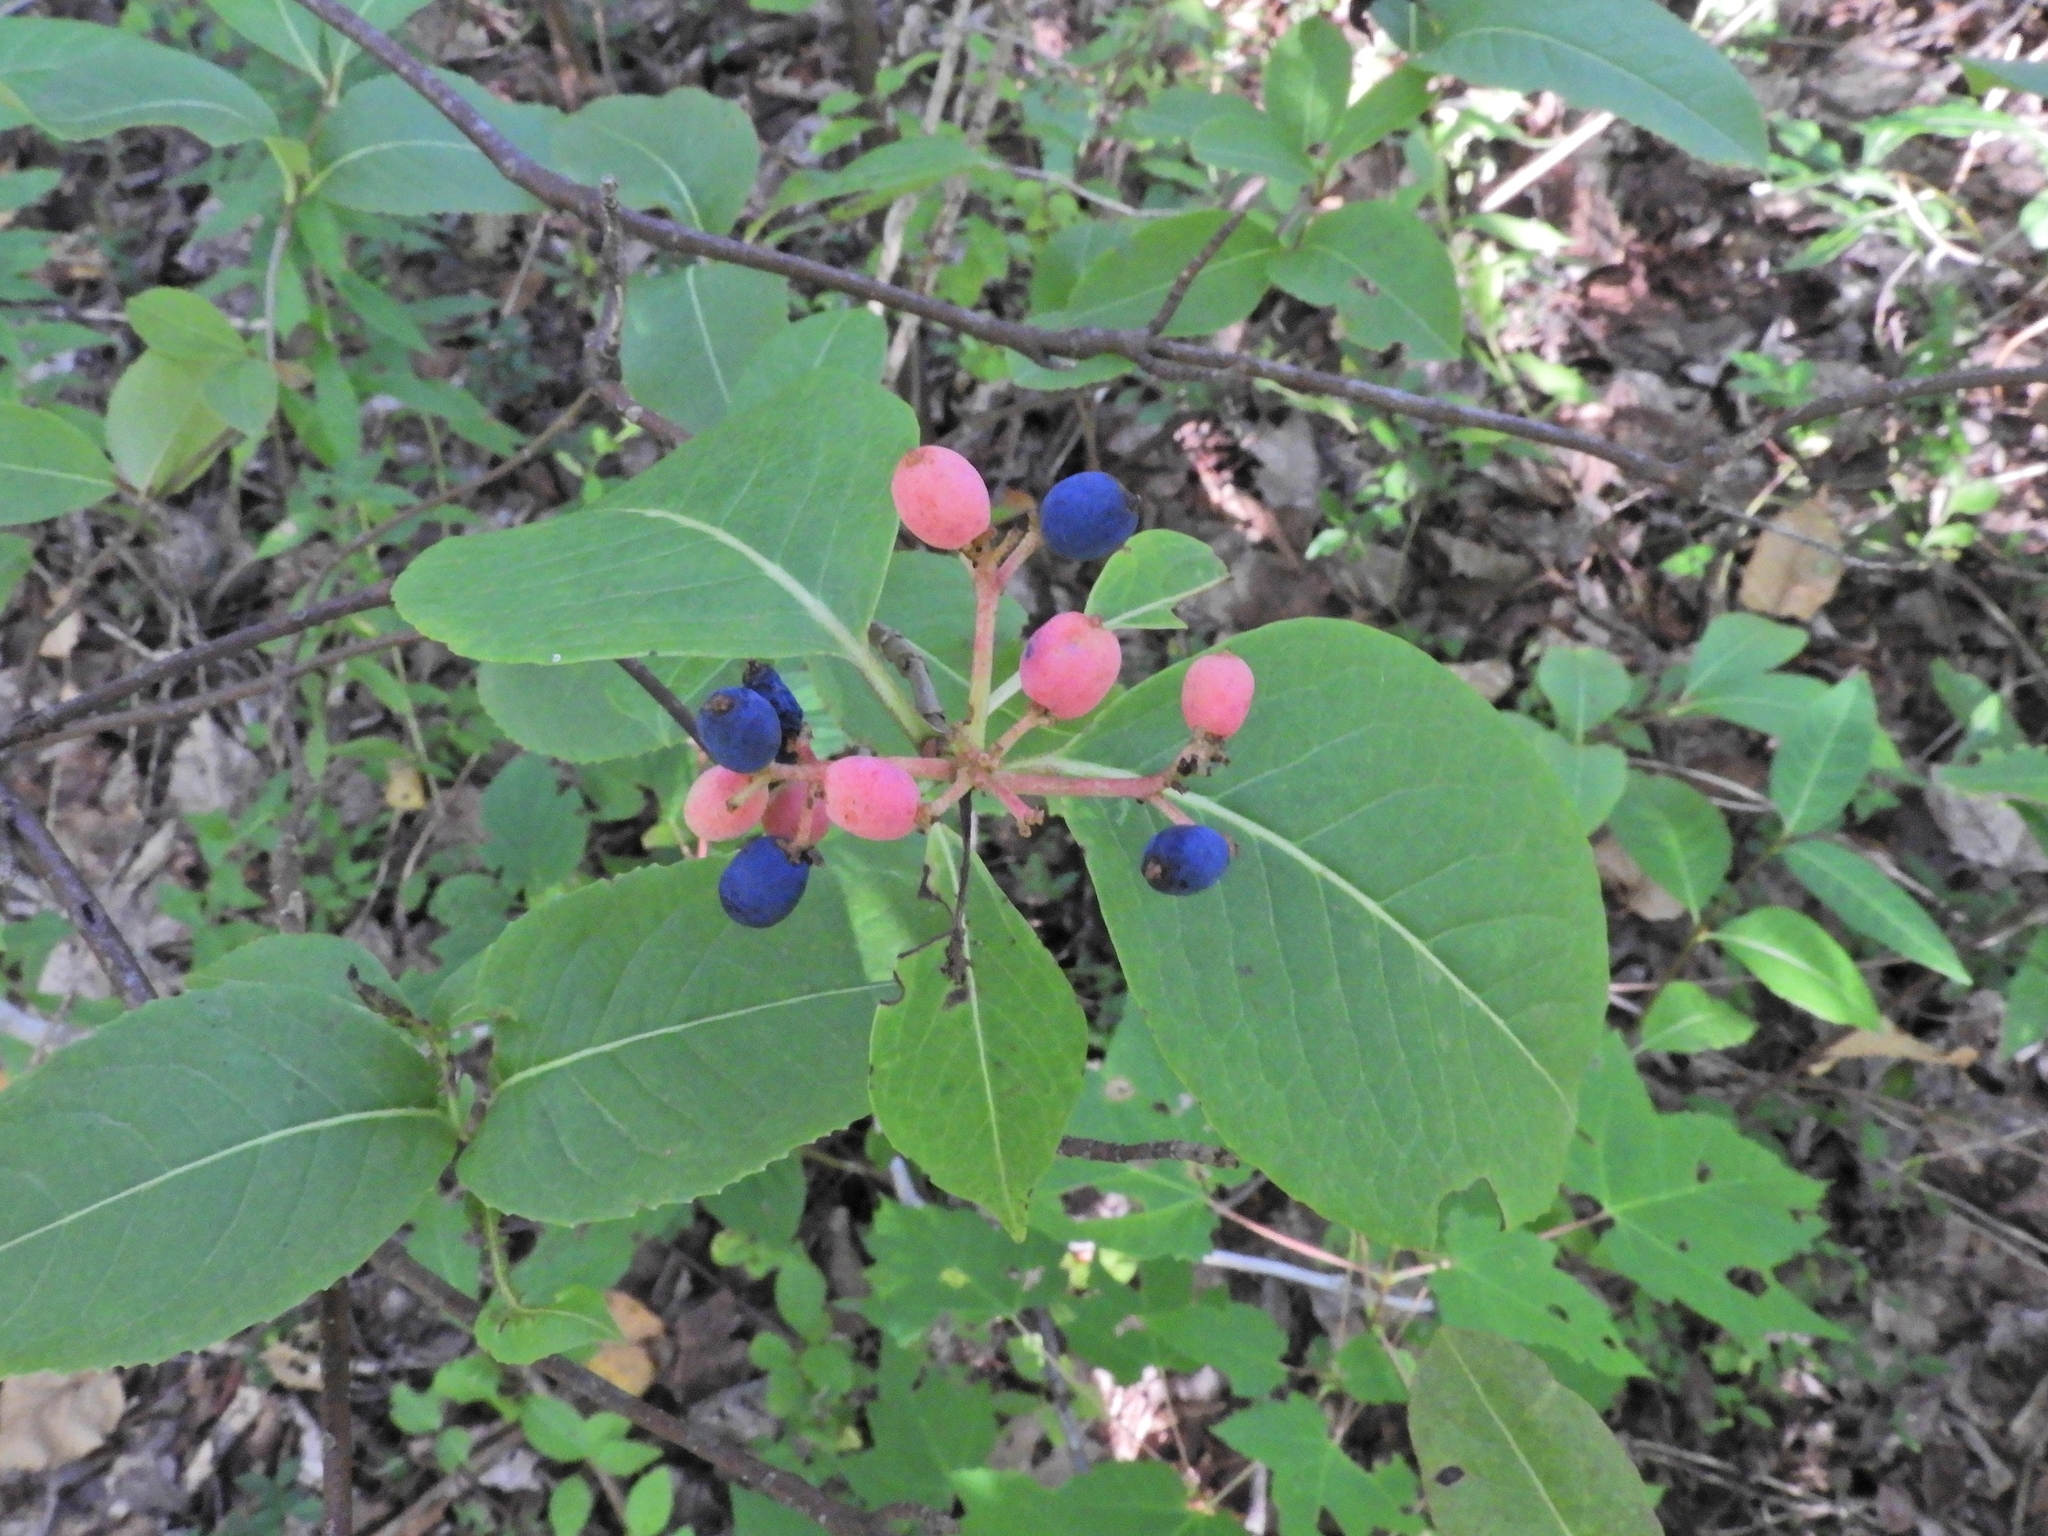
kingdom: Plantae
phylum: Tracheophyta
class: Magnoliopsida
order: Dipsacales
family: Viburnaceae
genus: Viburnum
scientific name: Viburnum cassinoides
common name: Swamp haw
